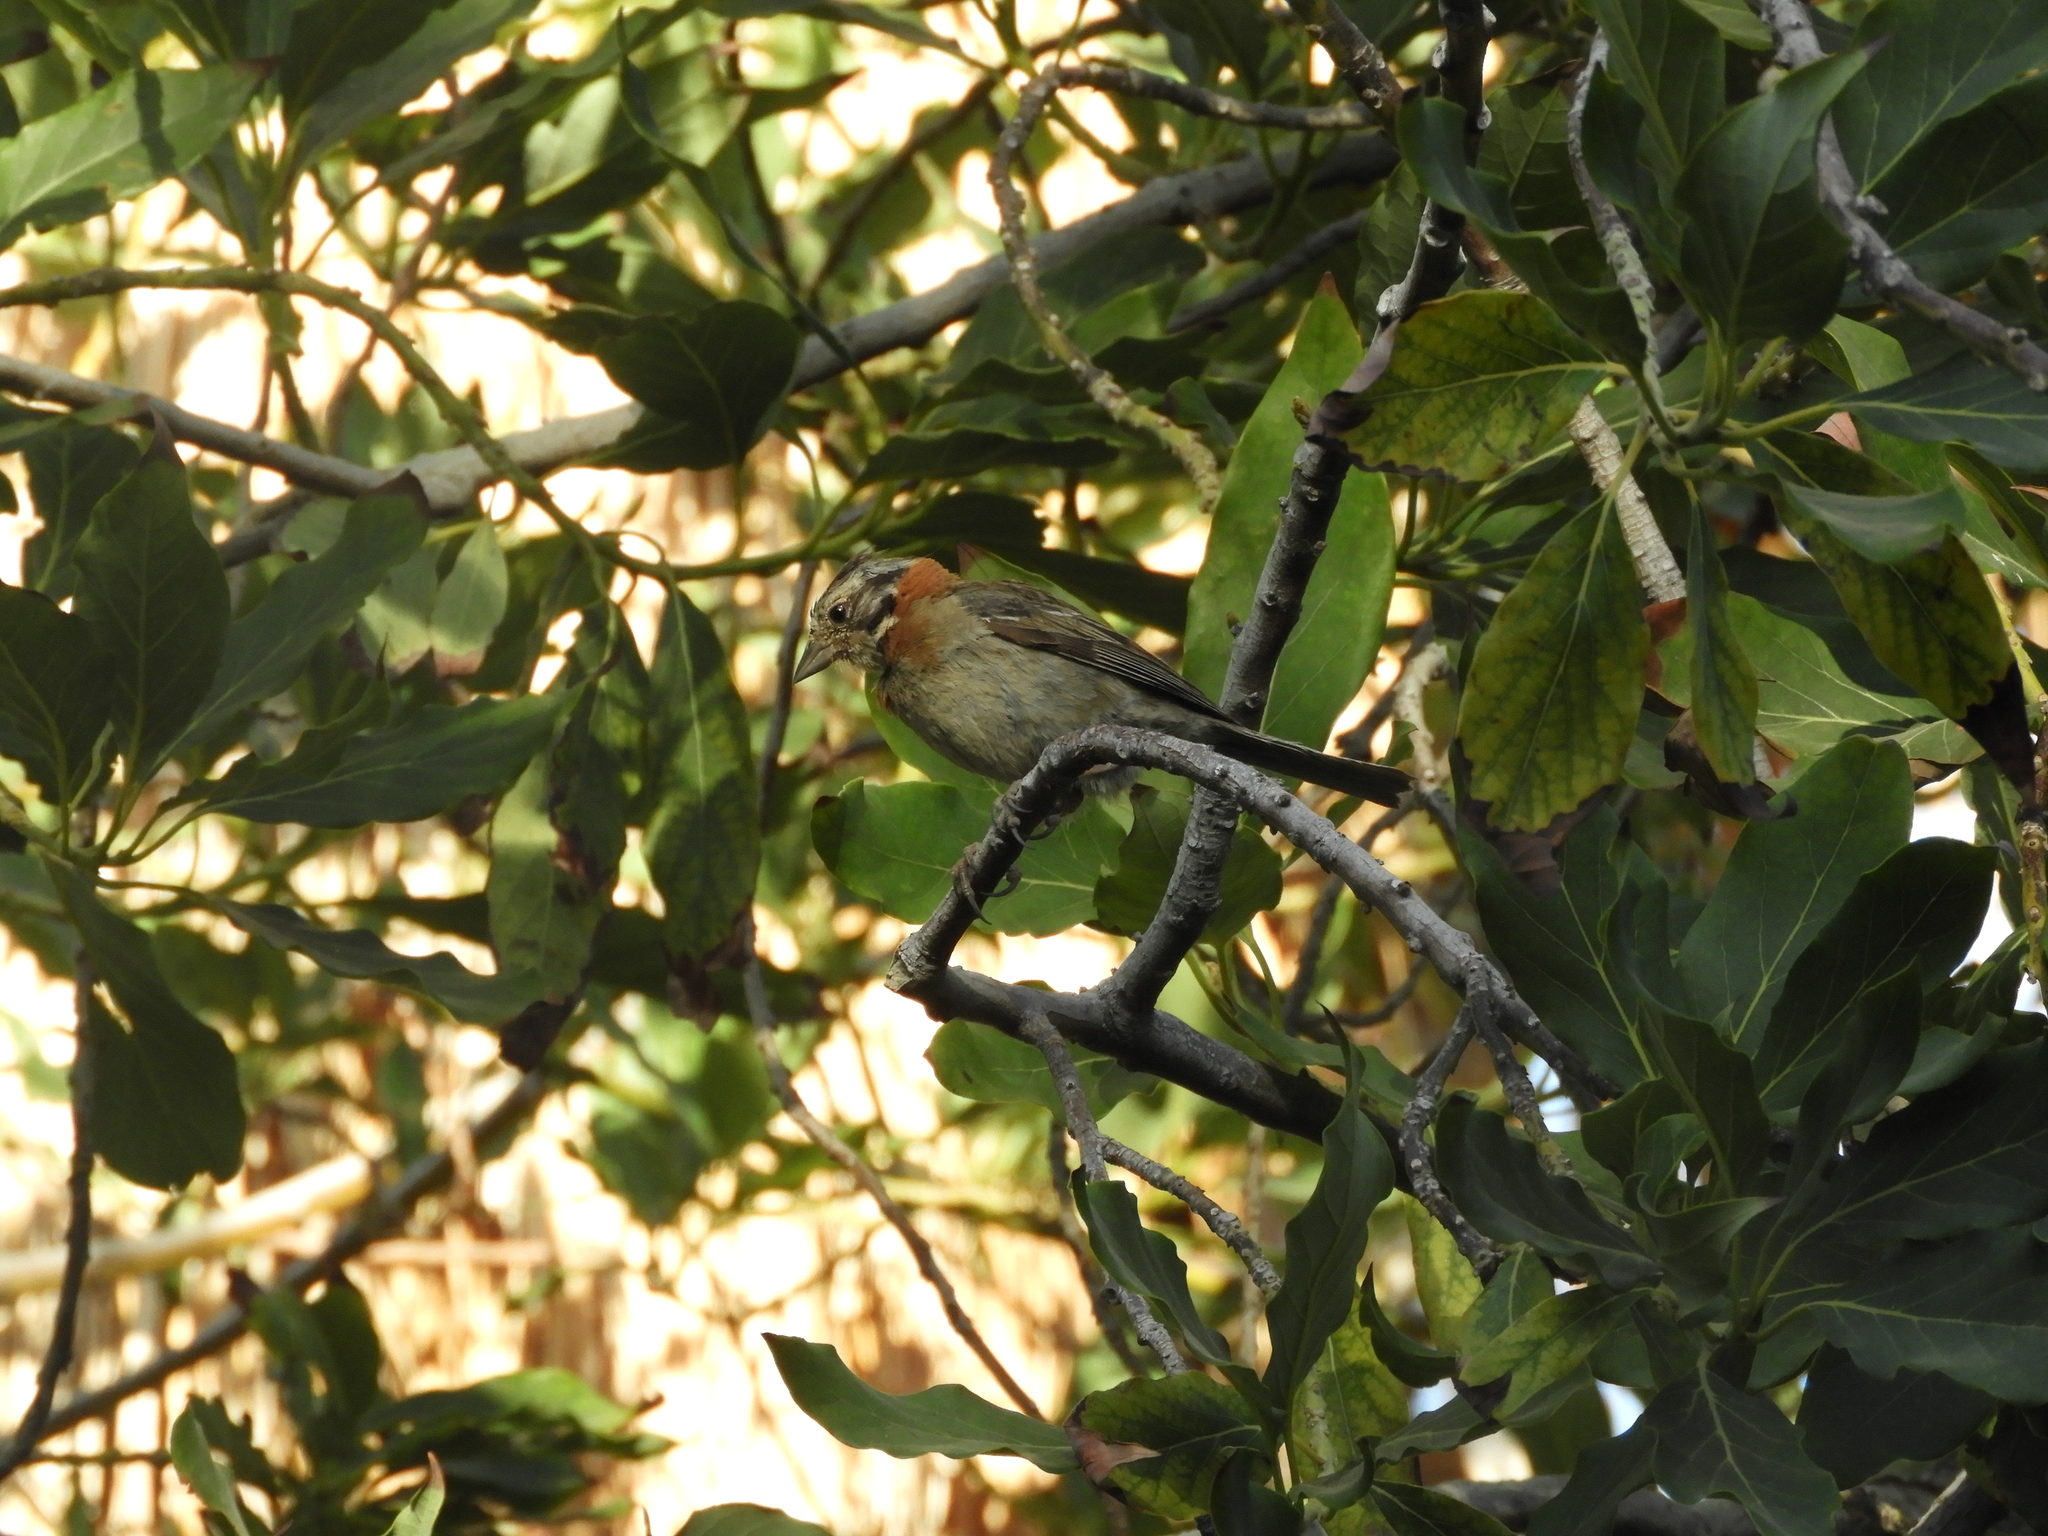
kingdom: Animalia
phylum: Chordata
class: Aves
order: Passeriformes
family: Passerellidae
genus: Zonotrichia
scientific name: Zonotrichia capensis
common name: Rufous-collared sparrow
